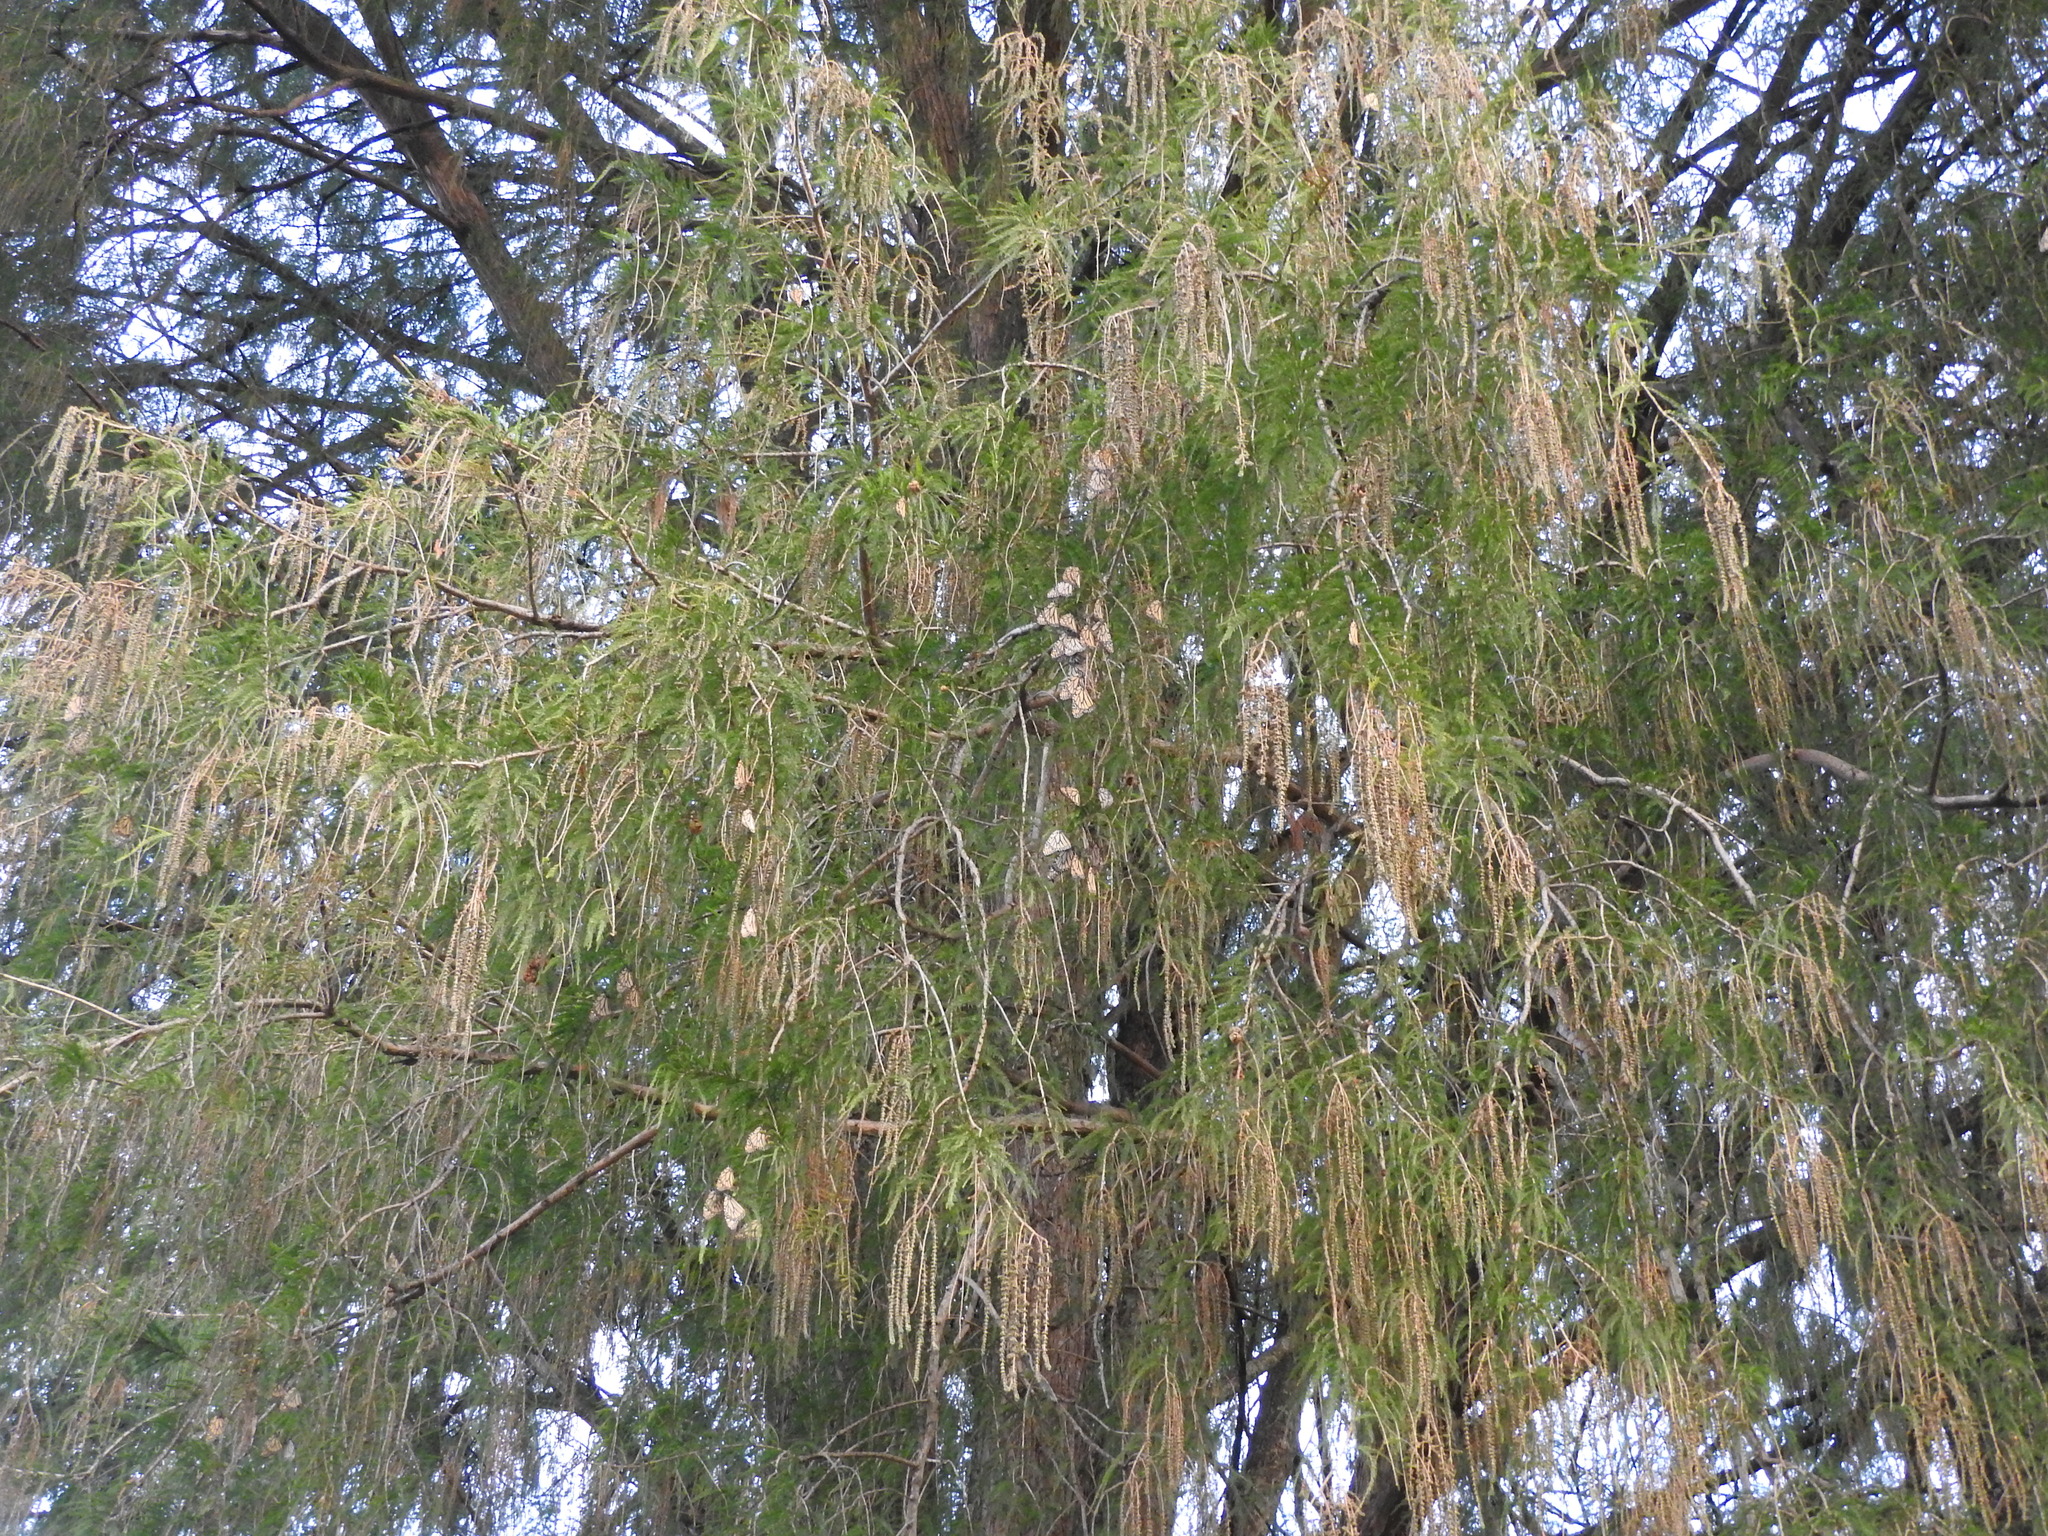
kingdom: Animalia
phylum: Arthropoda
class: Insecta
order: Lepidoptera
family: Nymphalidae
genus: Danaus
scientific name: Danaus plexippus
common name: Monarch
